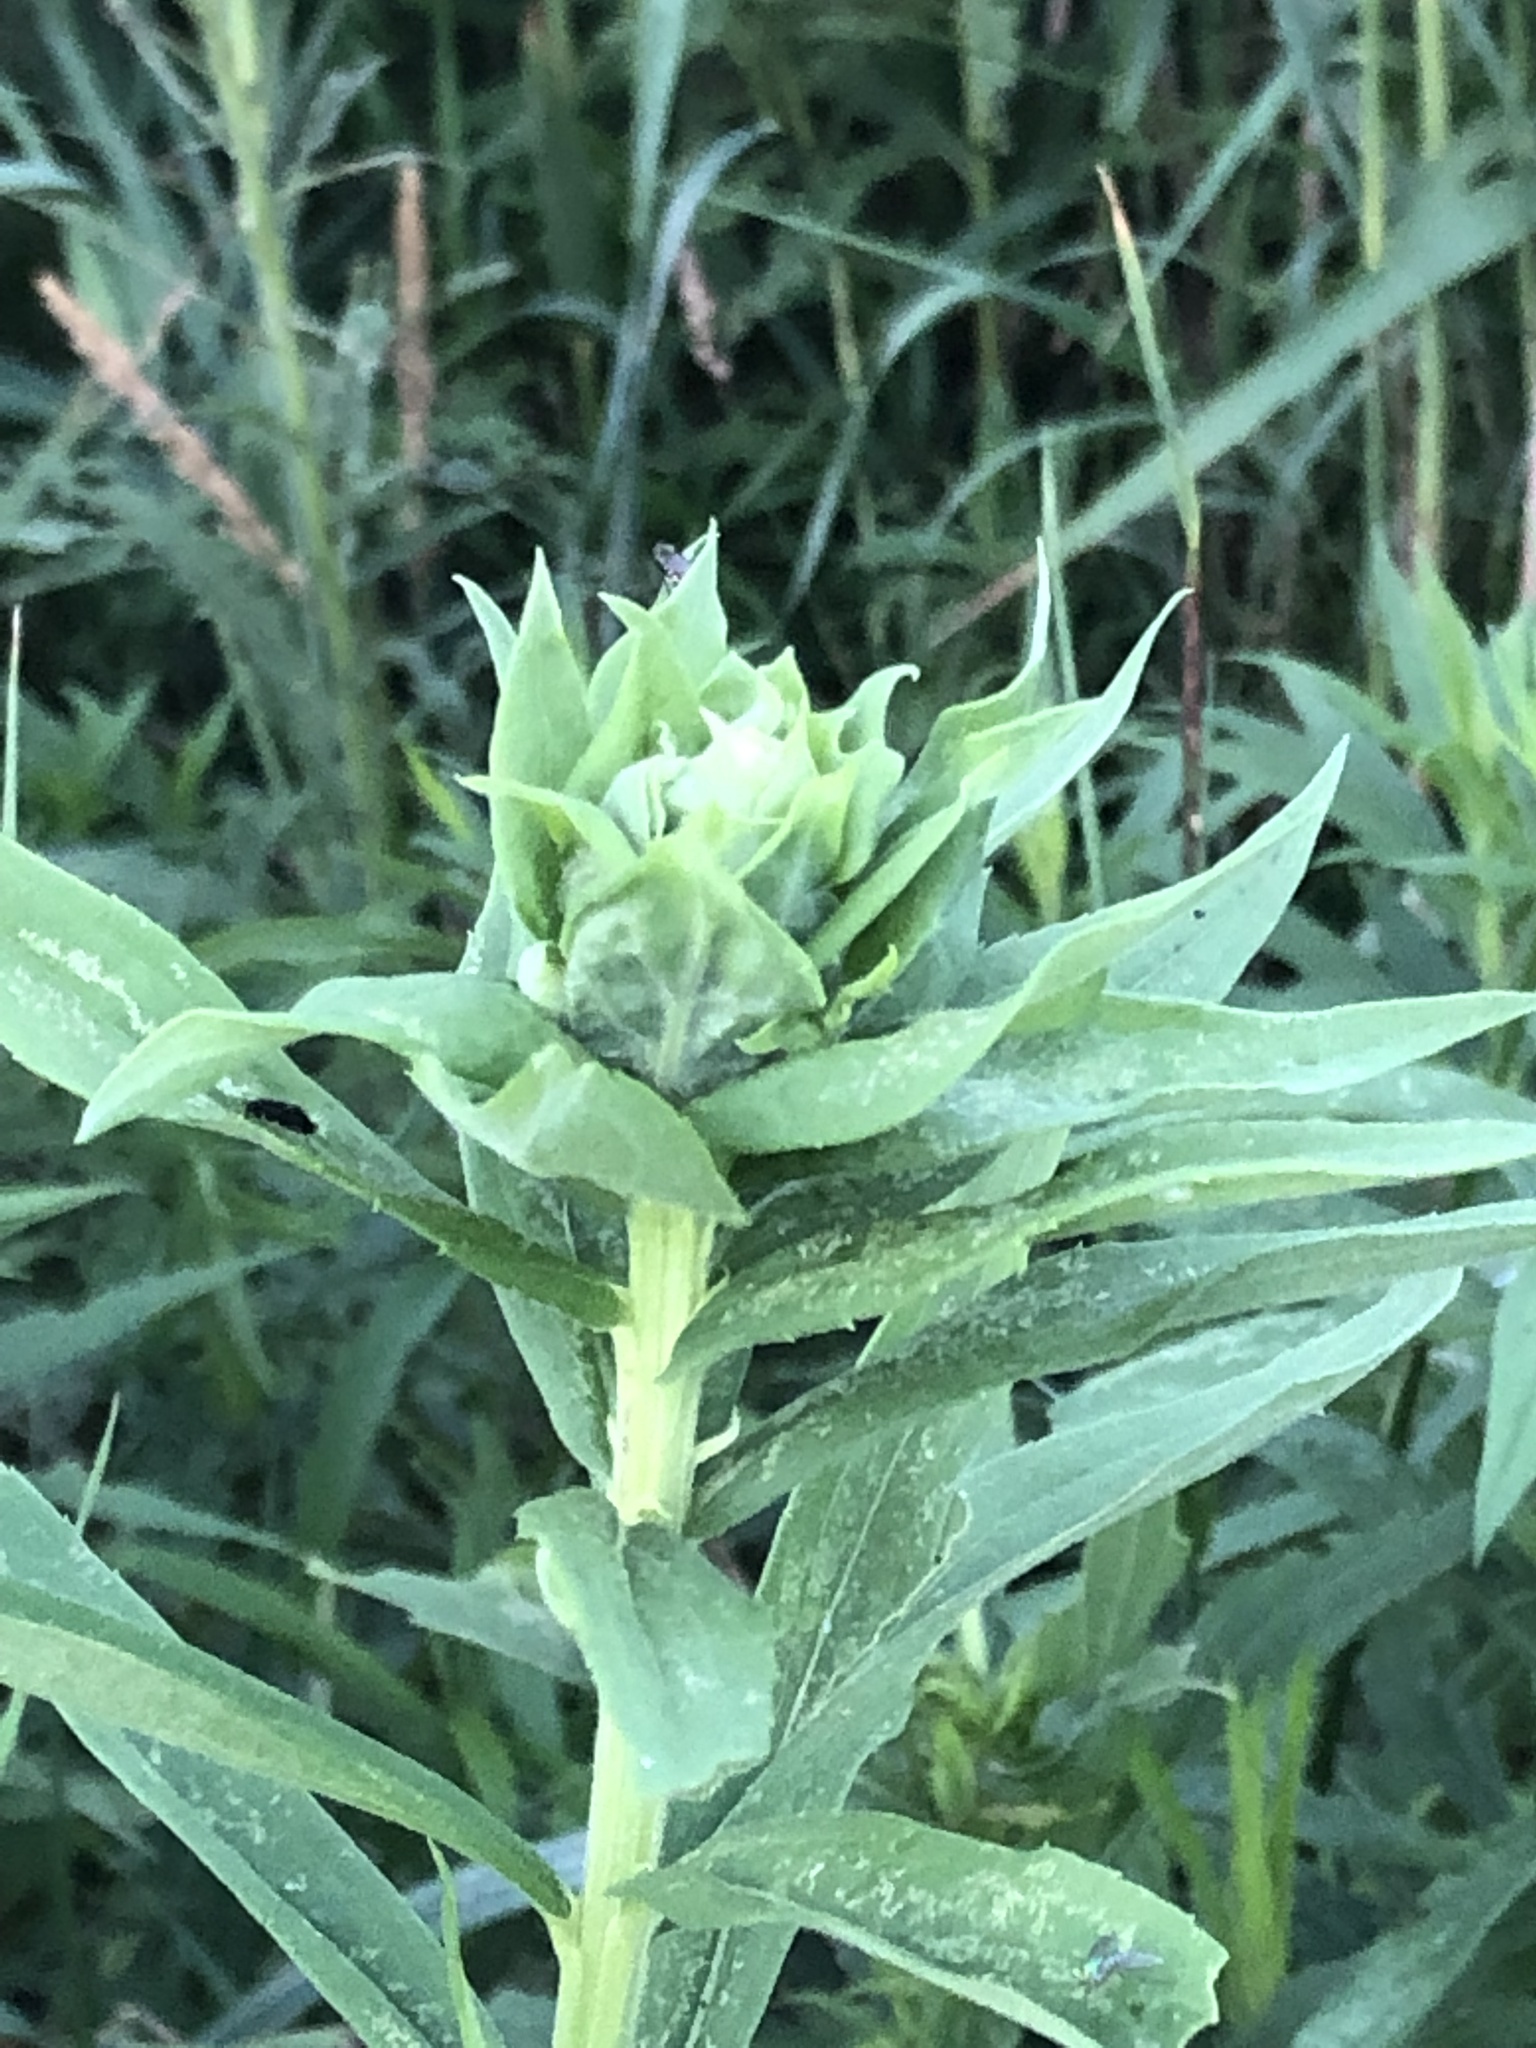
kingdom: Animalia
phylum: Arthropoda
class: Insecta
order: Diptera
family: Cecidomyiidae
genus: Rhopalomyia
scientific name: Rhopalomyia solidaginis
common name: Goldenrod bunch gall midge
